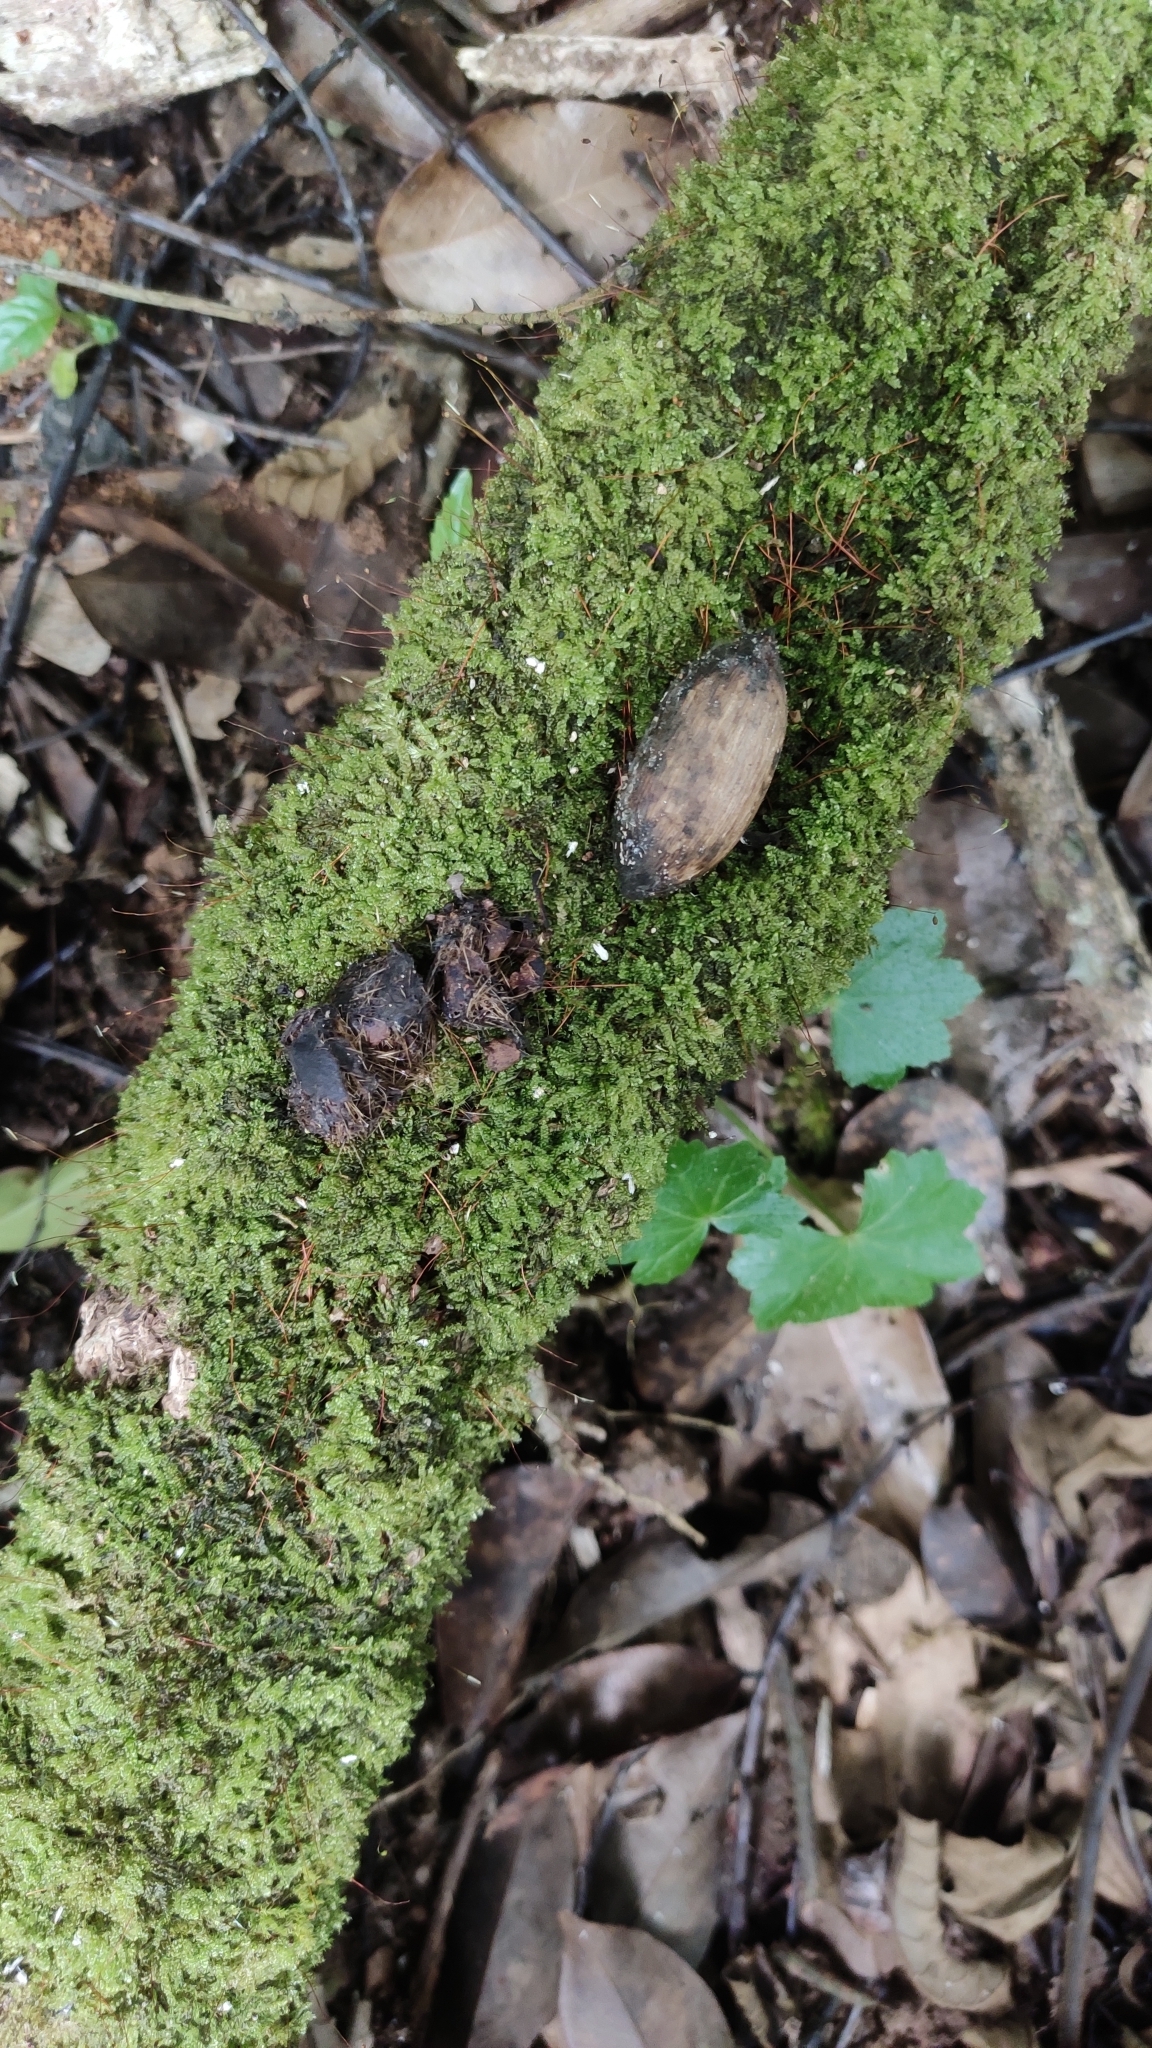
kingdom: Plantae
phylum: Tracheophyta
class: Gnetopsida
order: Gnetales
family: Gnetaceae
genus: Gnetum
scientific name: Gnetum edule
